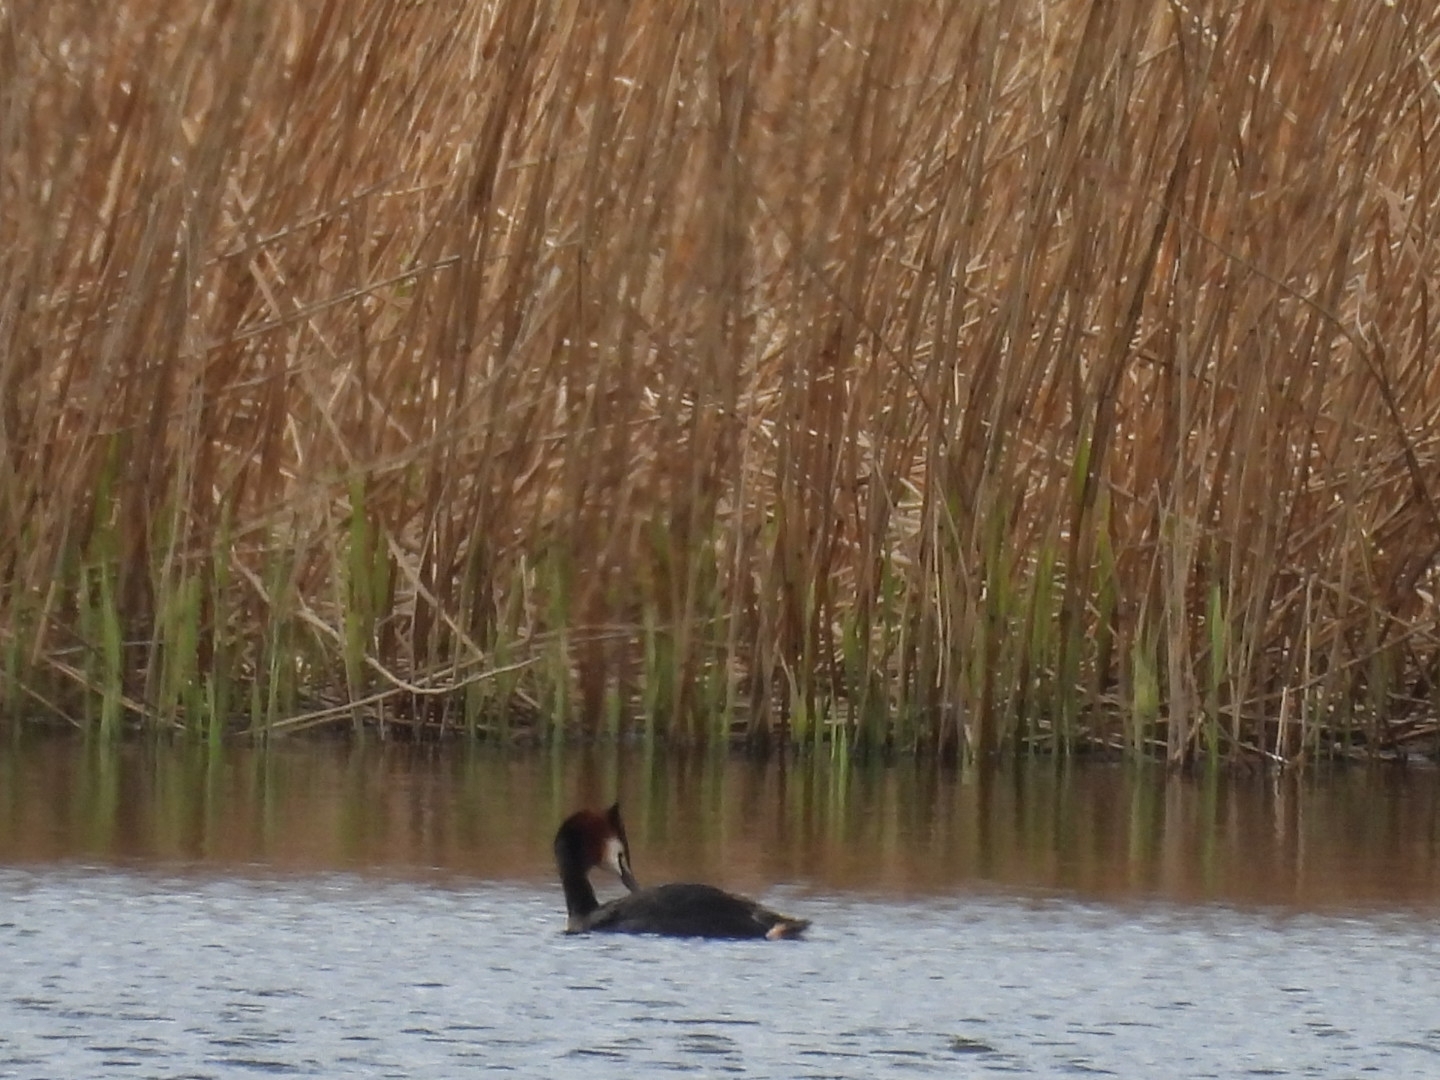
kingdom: Animalia
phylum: Chordata
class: Aves
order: Podicipediformes
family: Podicipedidae
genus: Podiceps
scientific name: Podiceps cristatus
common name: Great crested grebe
